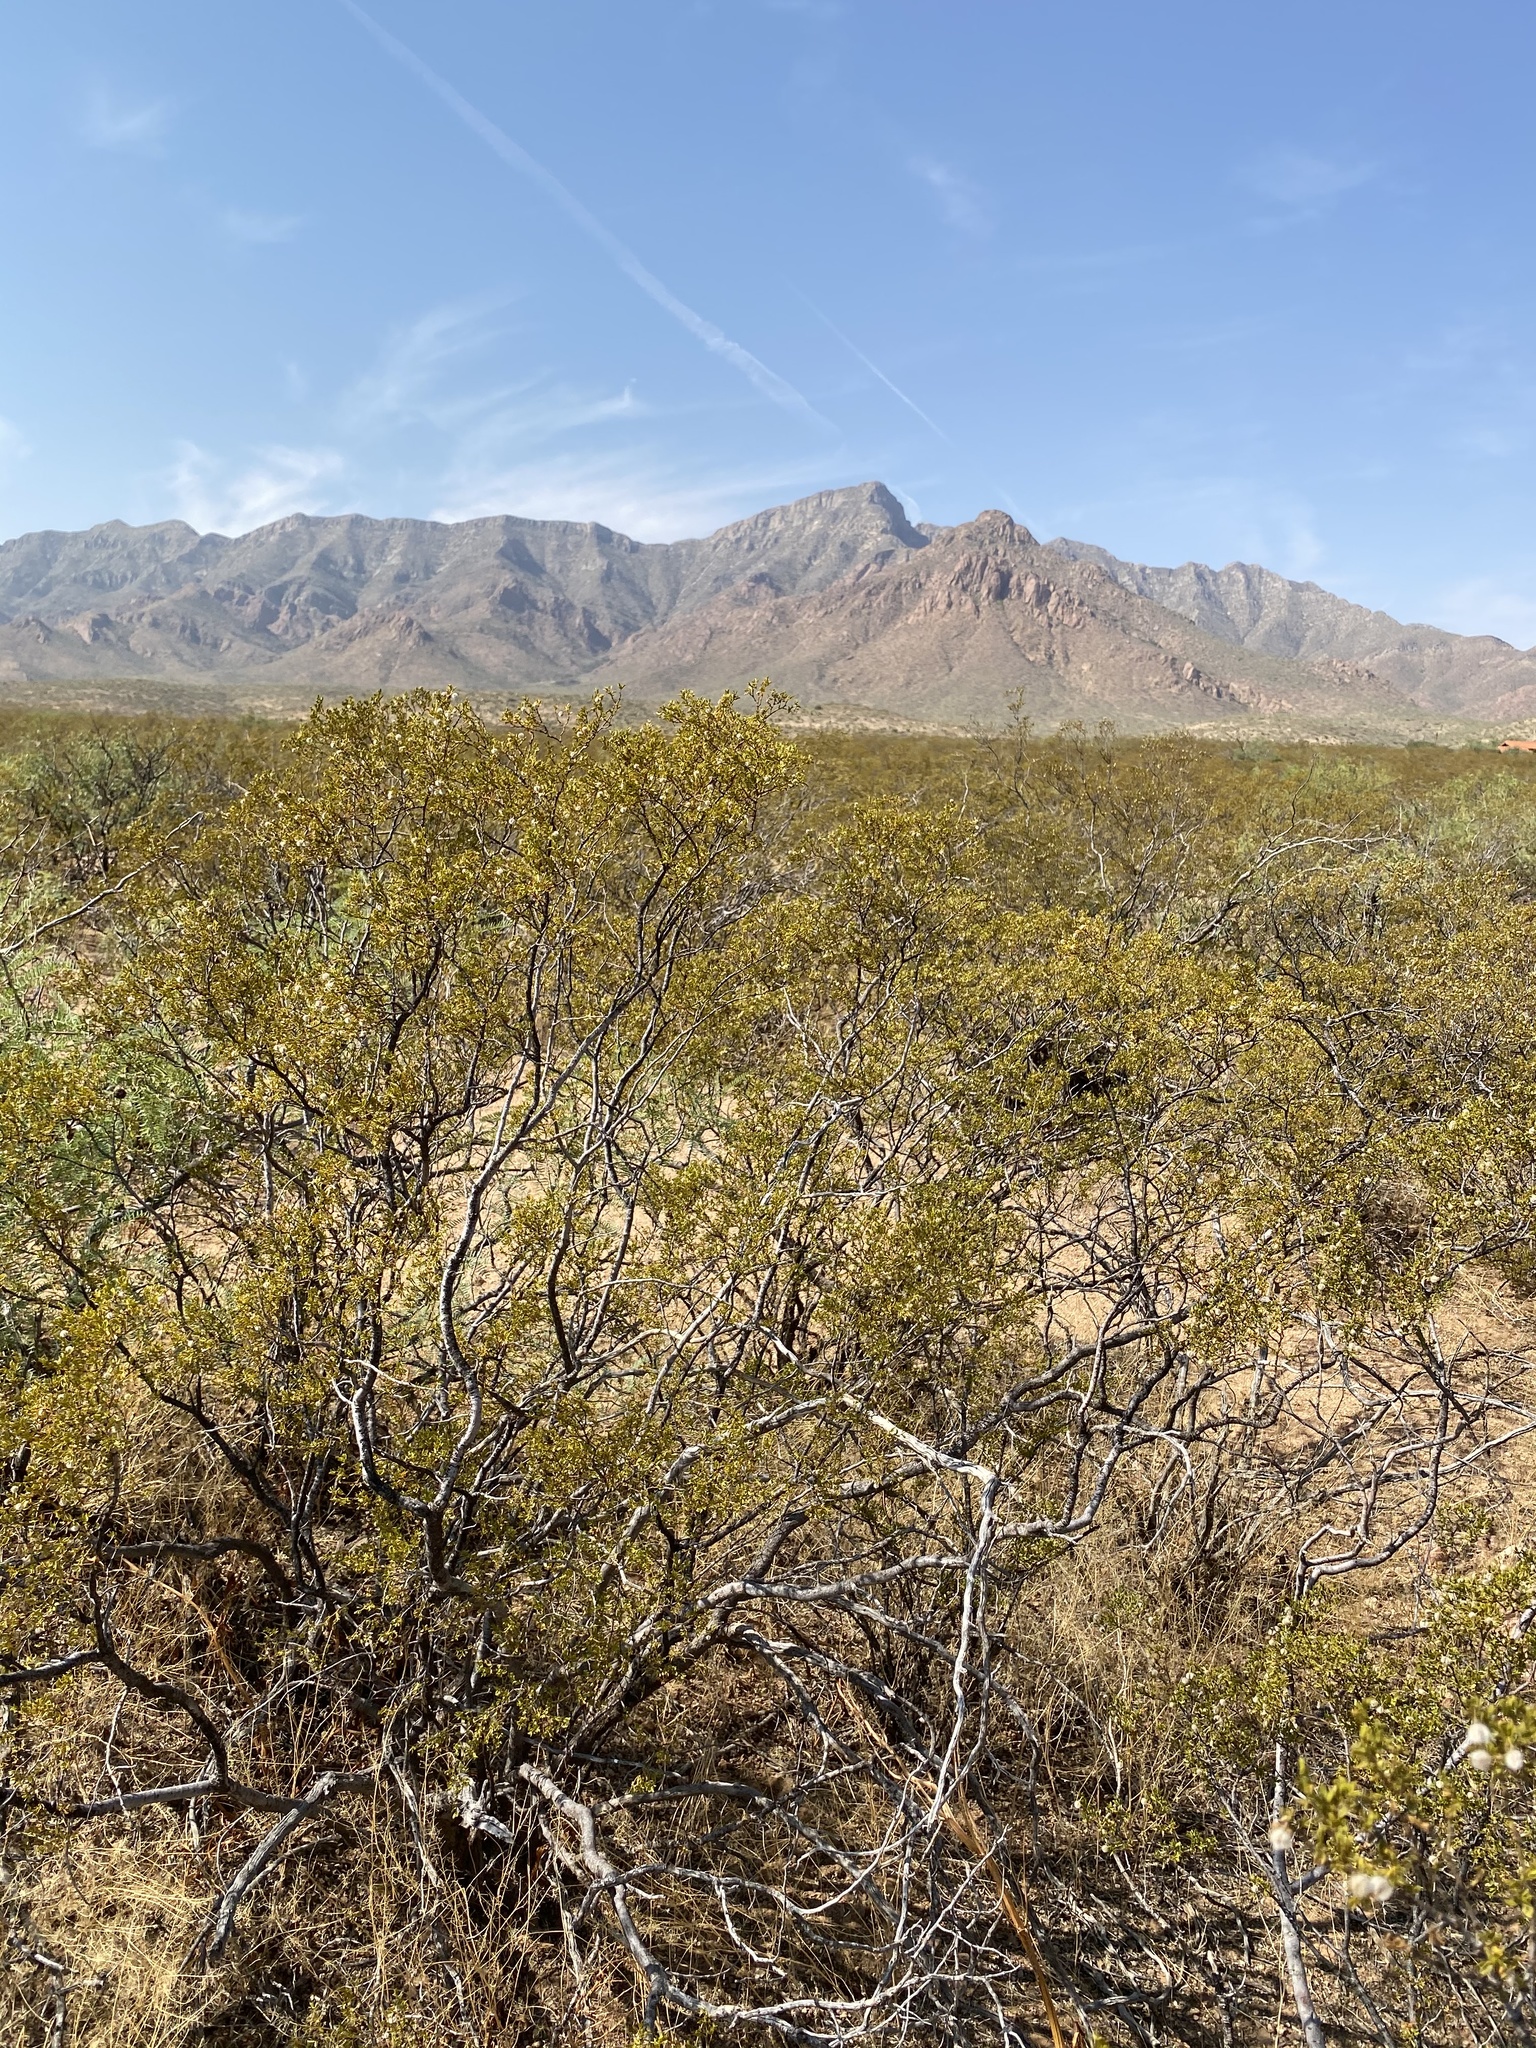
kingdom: Plantae
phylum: Tracheophyta
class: Magnoliopsida
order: Zygophyllales
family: Zygophyllaceae
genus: Larrea
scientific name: Larrea tridentata
